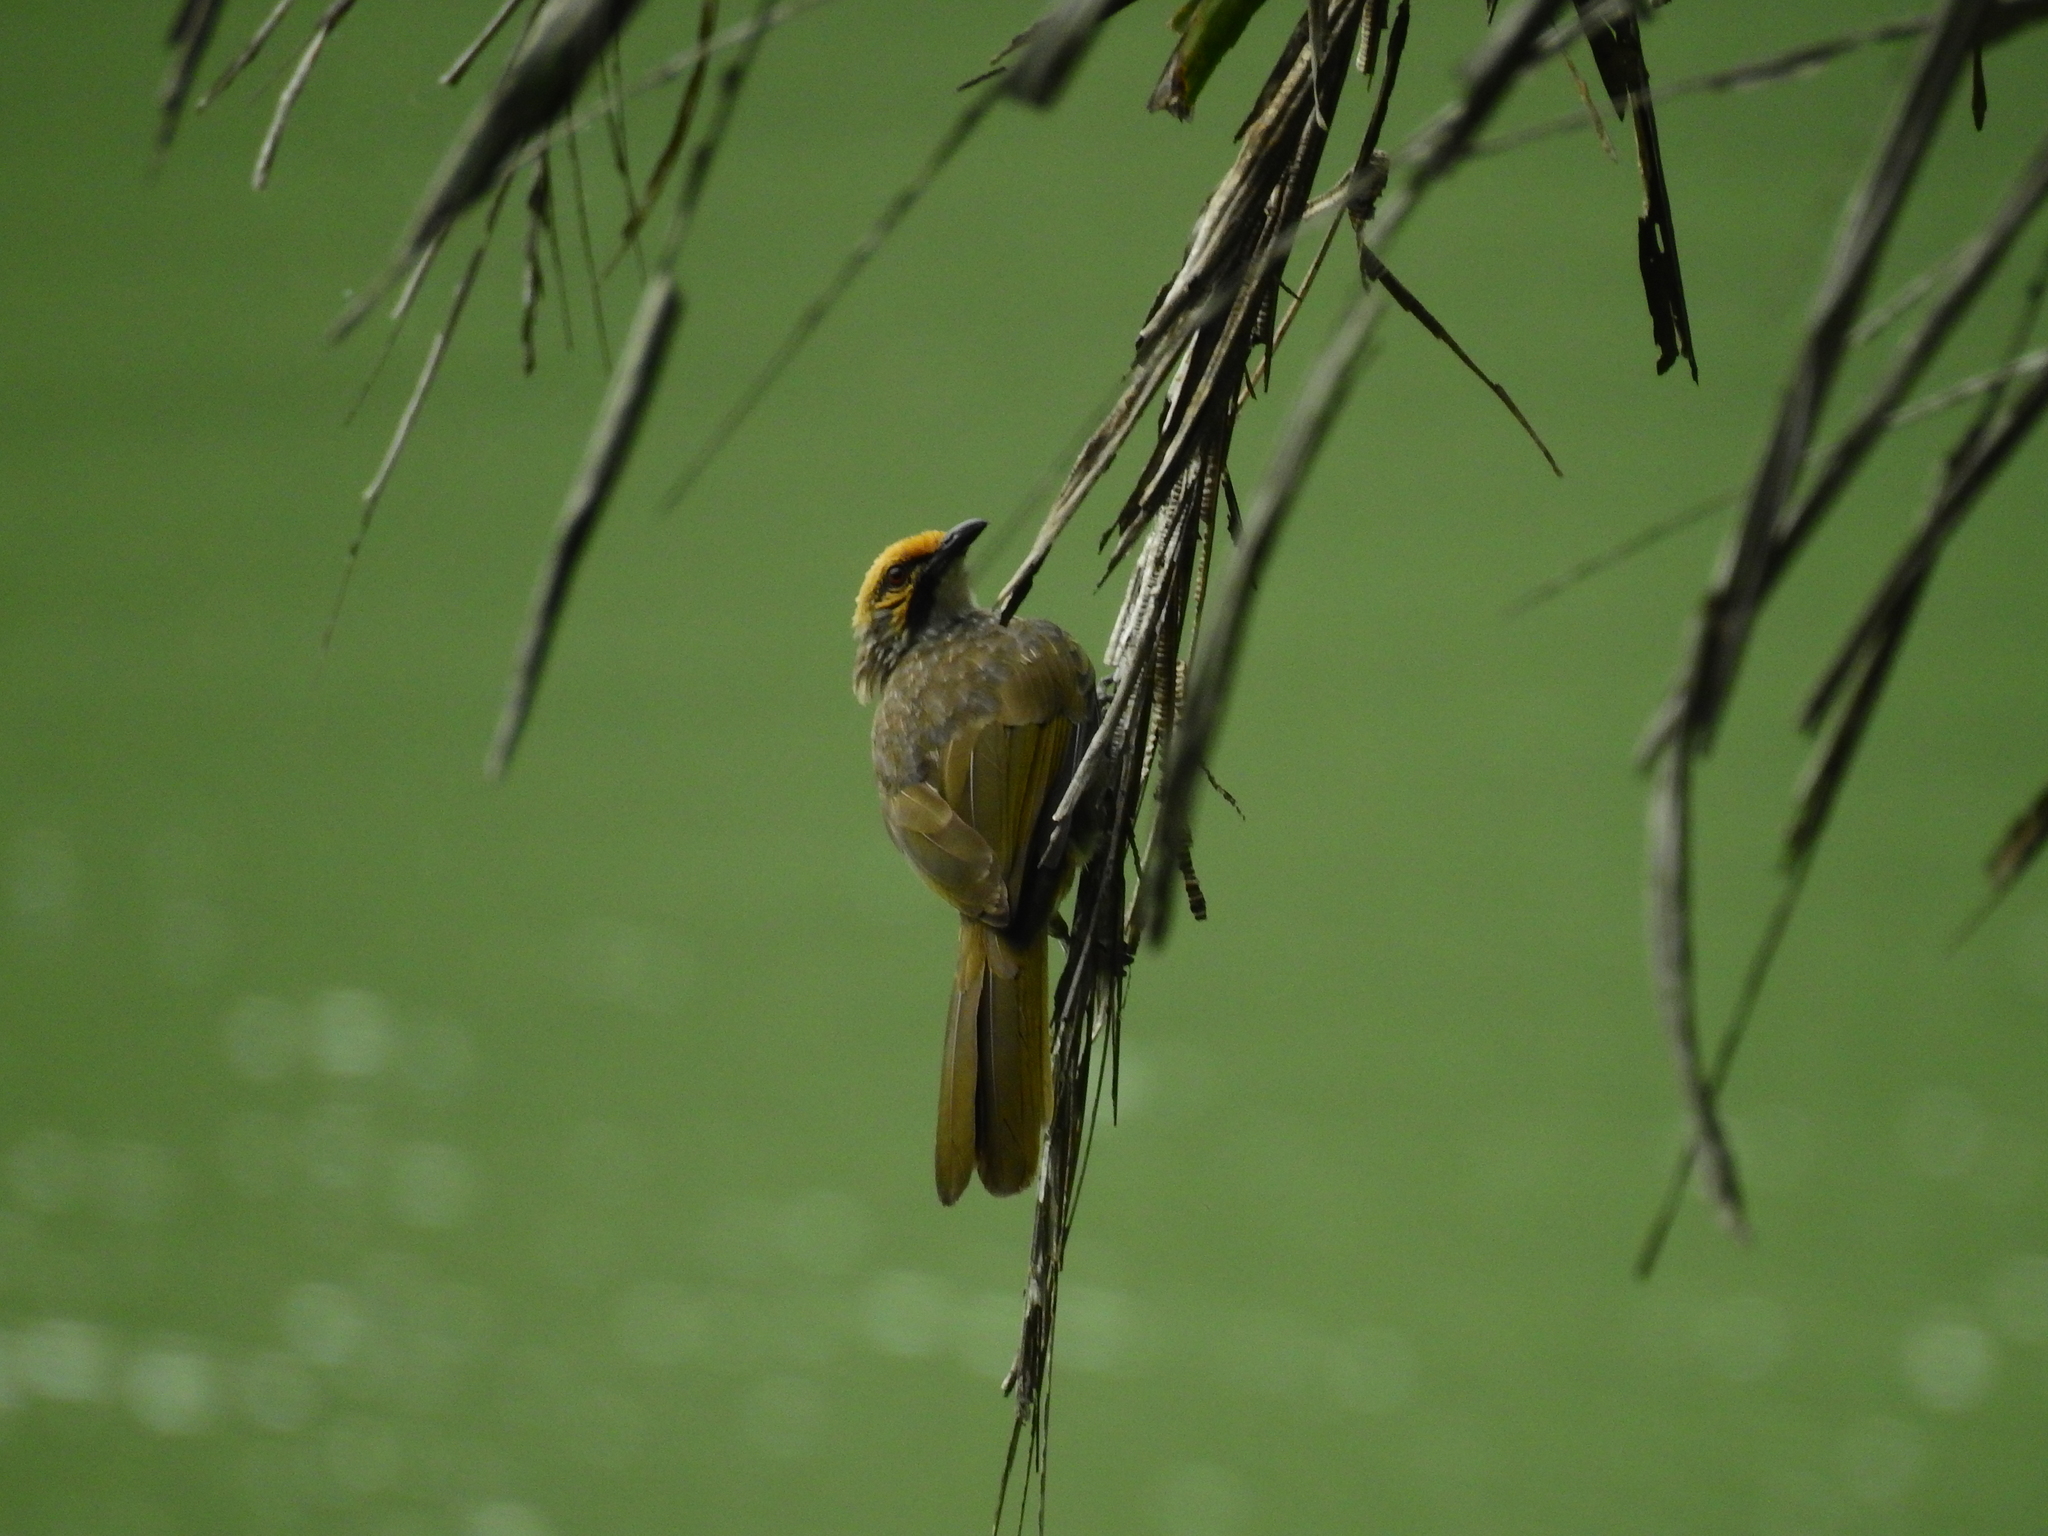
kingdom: Animalia
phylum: Chordata
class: Aves
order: Passeriformes
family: Pycnonotidae
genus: Pycnonotus
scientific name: Pycnonotus zeylanicus
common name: Straw-headed bulbul
